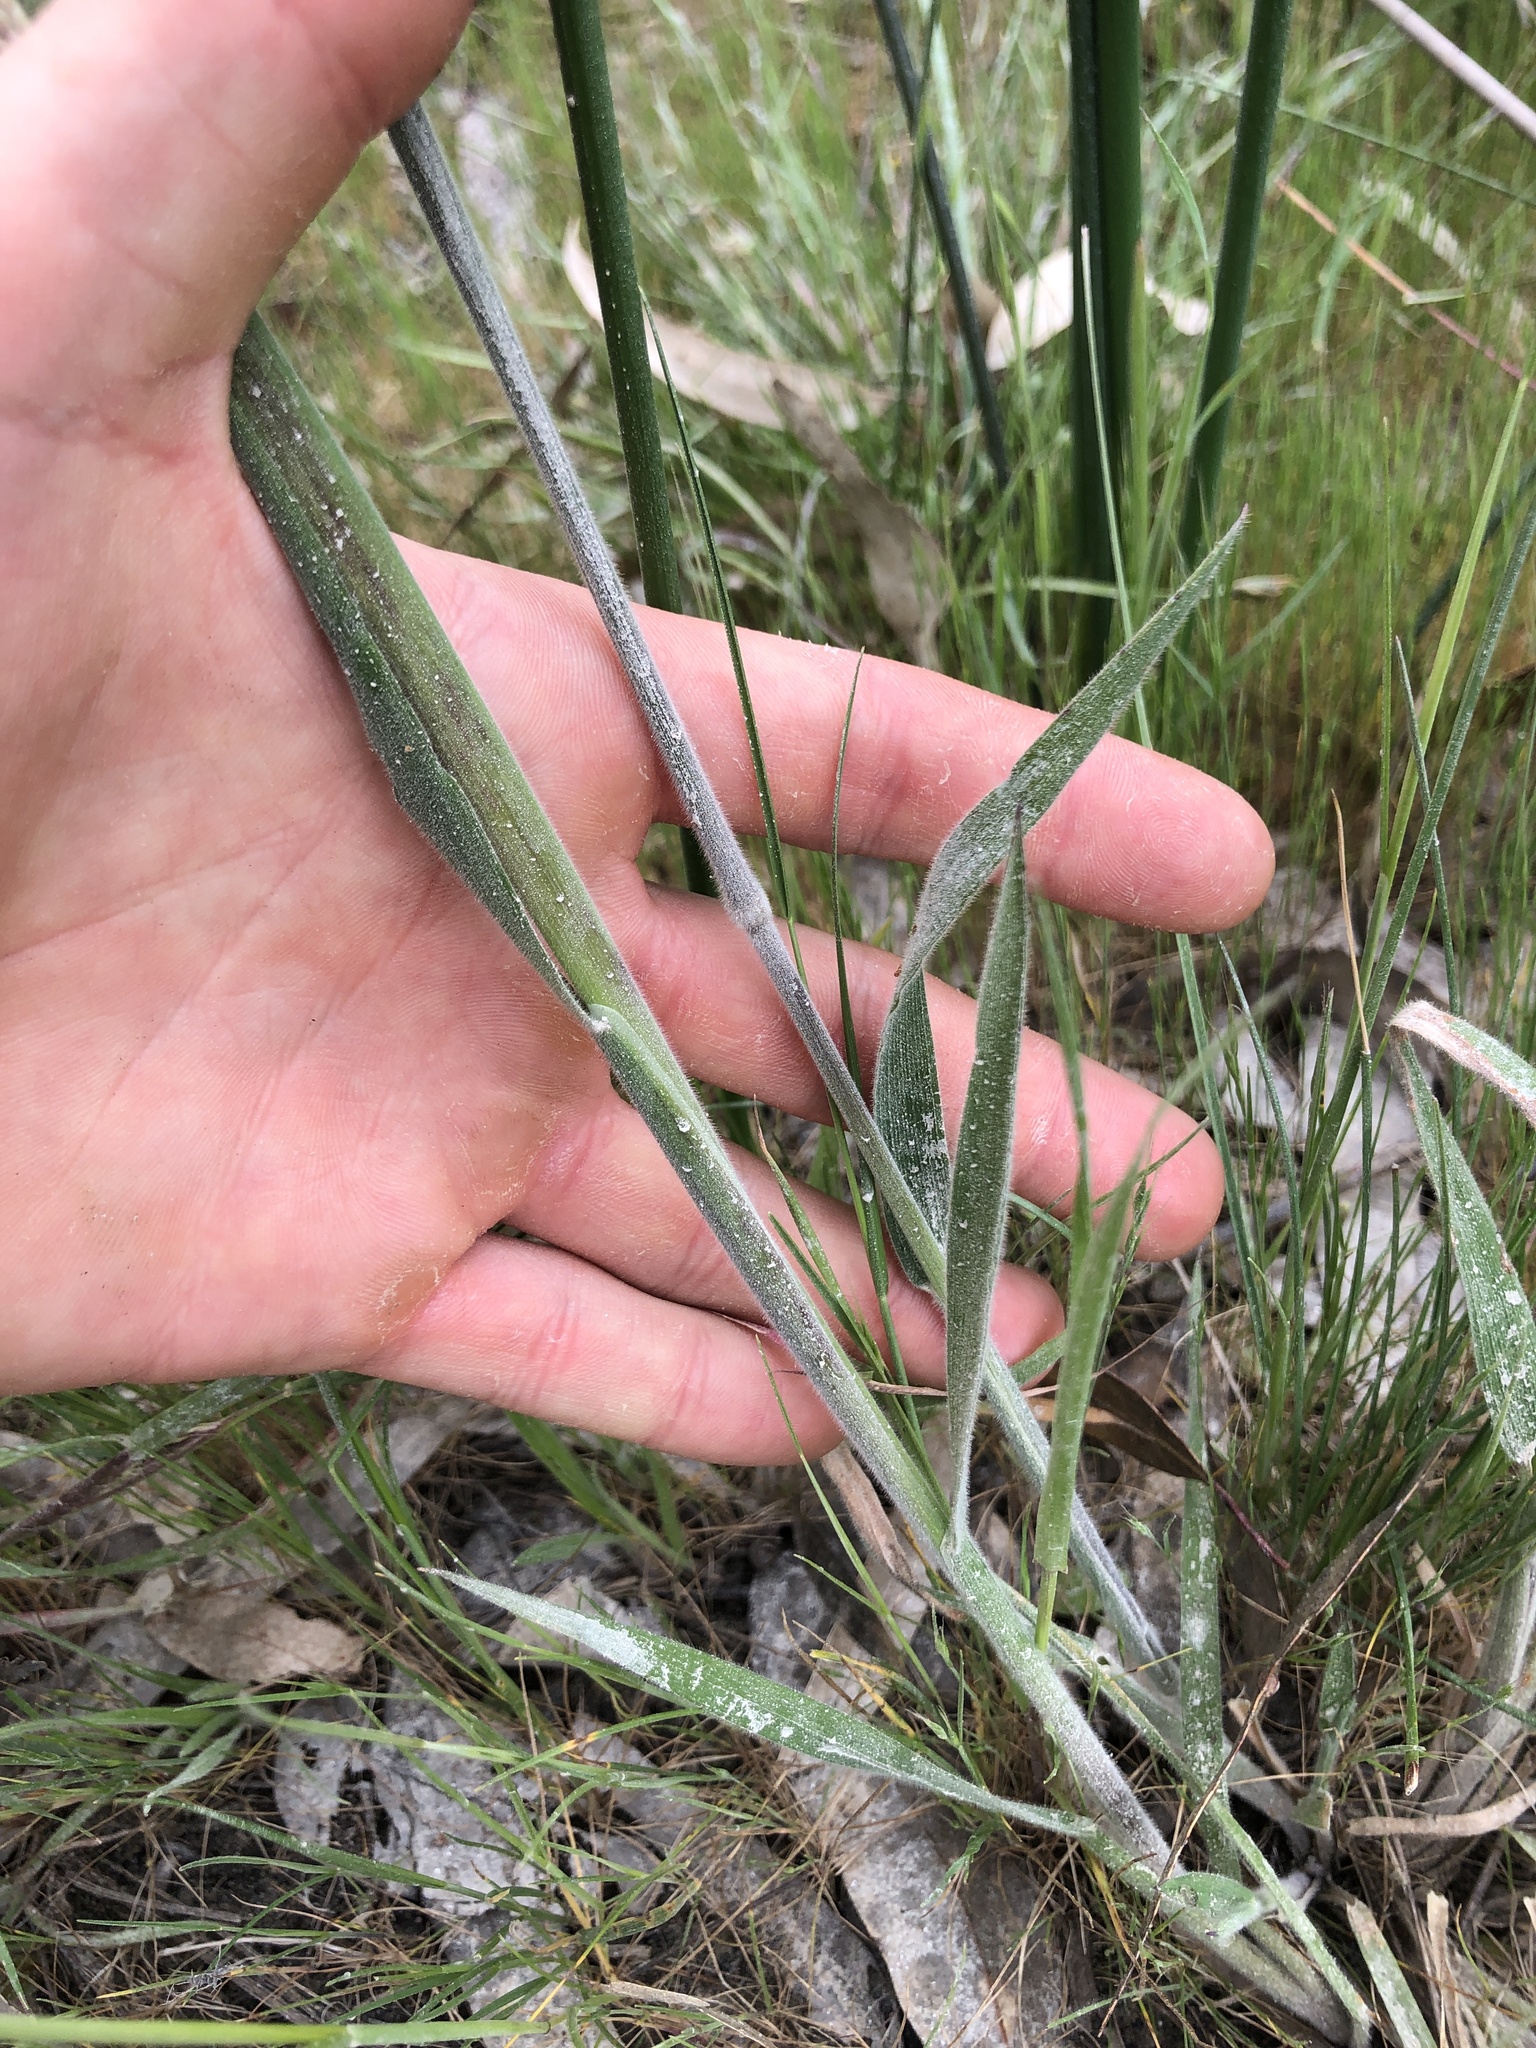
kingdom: Plantae
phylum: Tracheophyta
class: Liliopsida
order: Poales
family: Poaceae
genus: Holcus
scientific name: Holcus lanatus
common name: Yorkshire-fog
